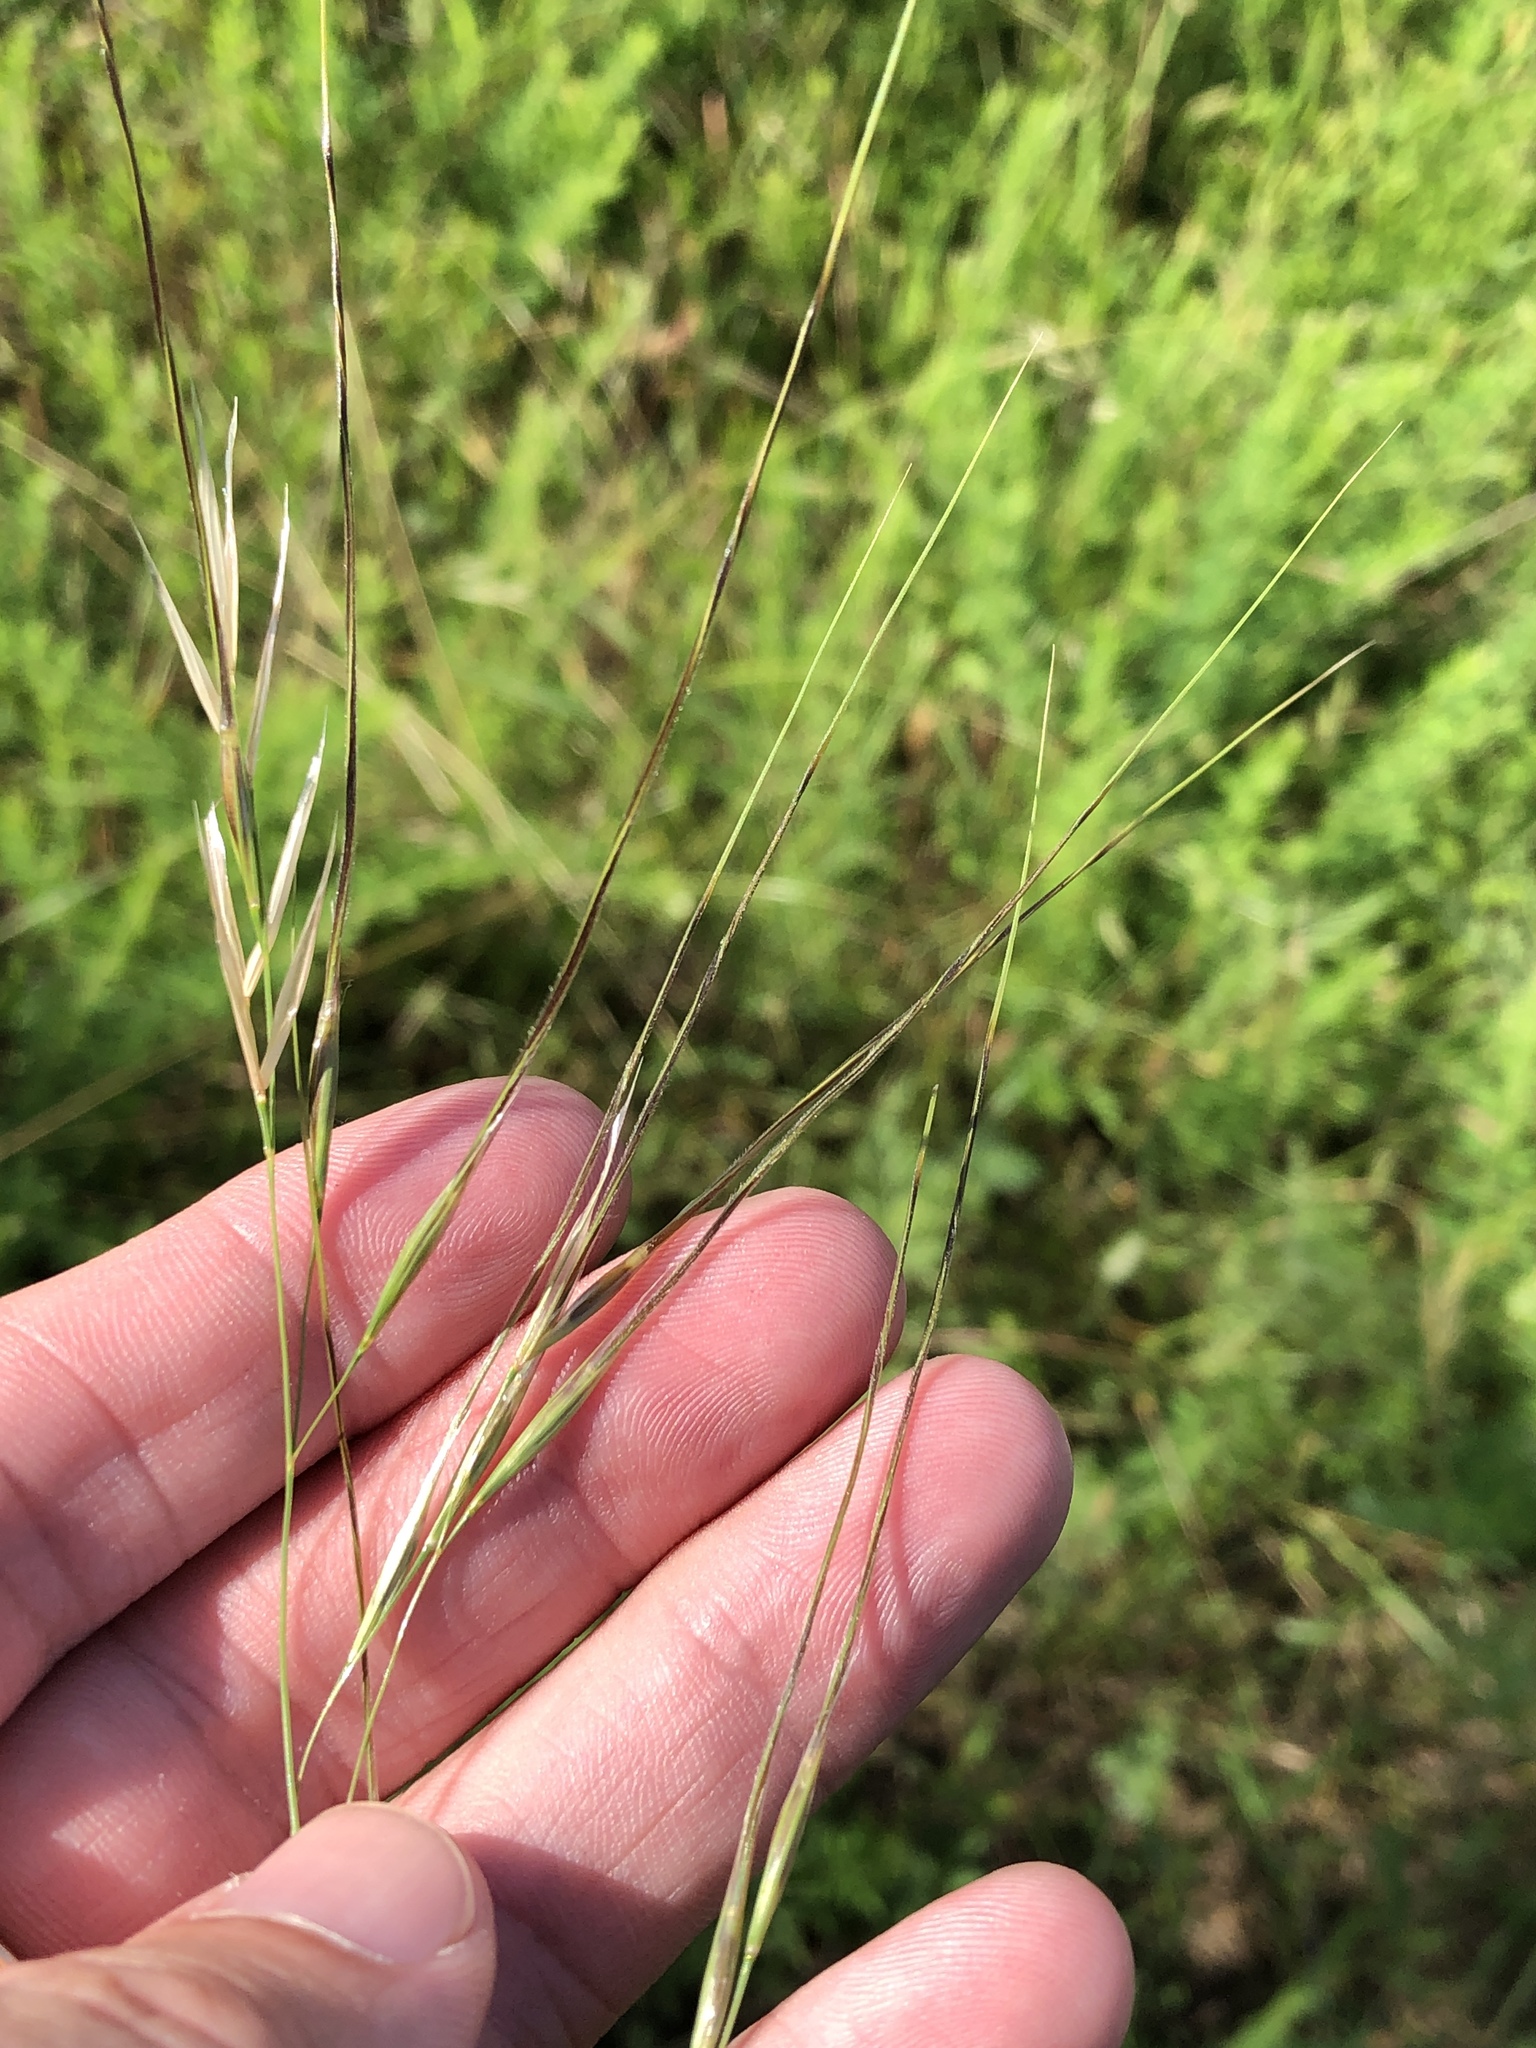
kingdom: Plantae
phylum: Tracheophyta
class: Liliopsida
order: Poales
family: Poaceae
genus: Nassella
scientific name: Nassella leucotricha
